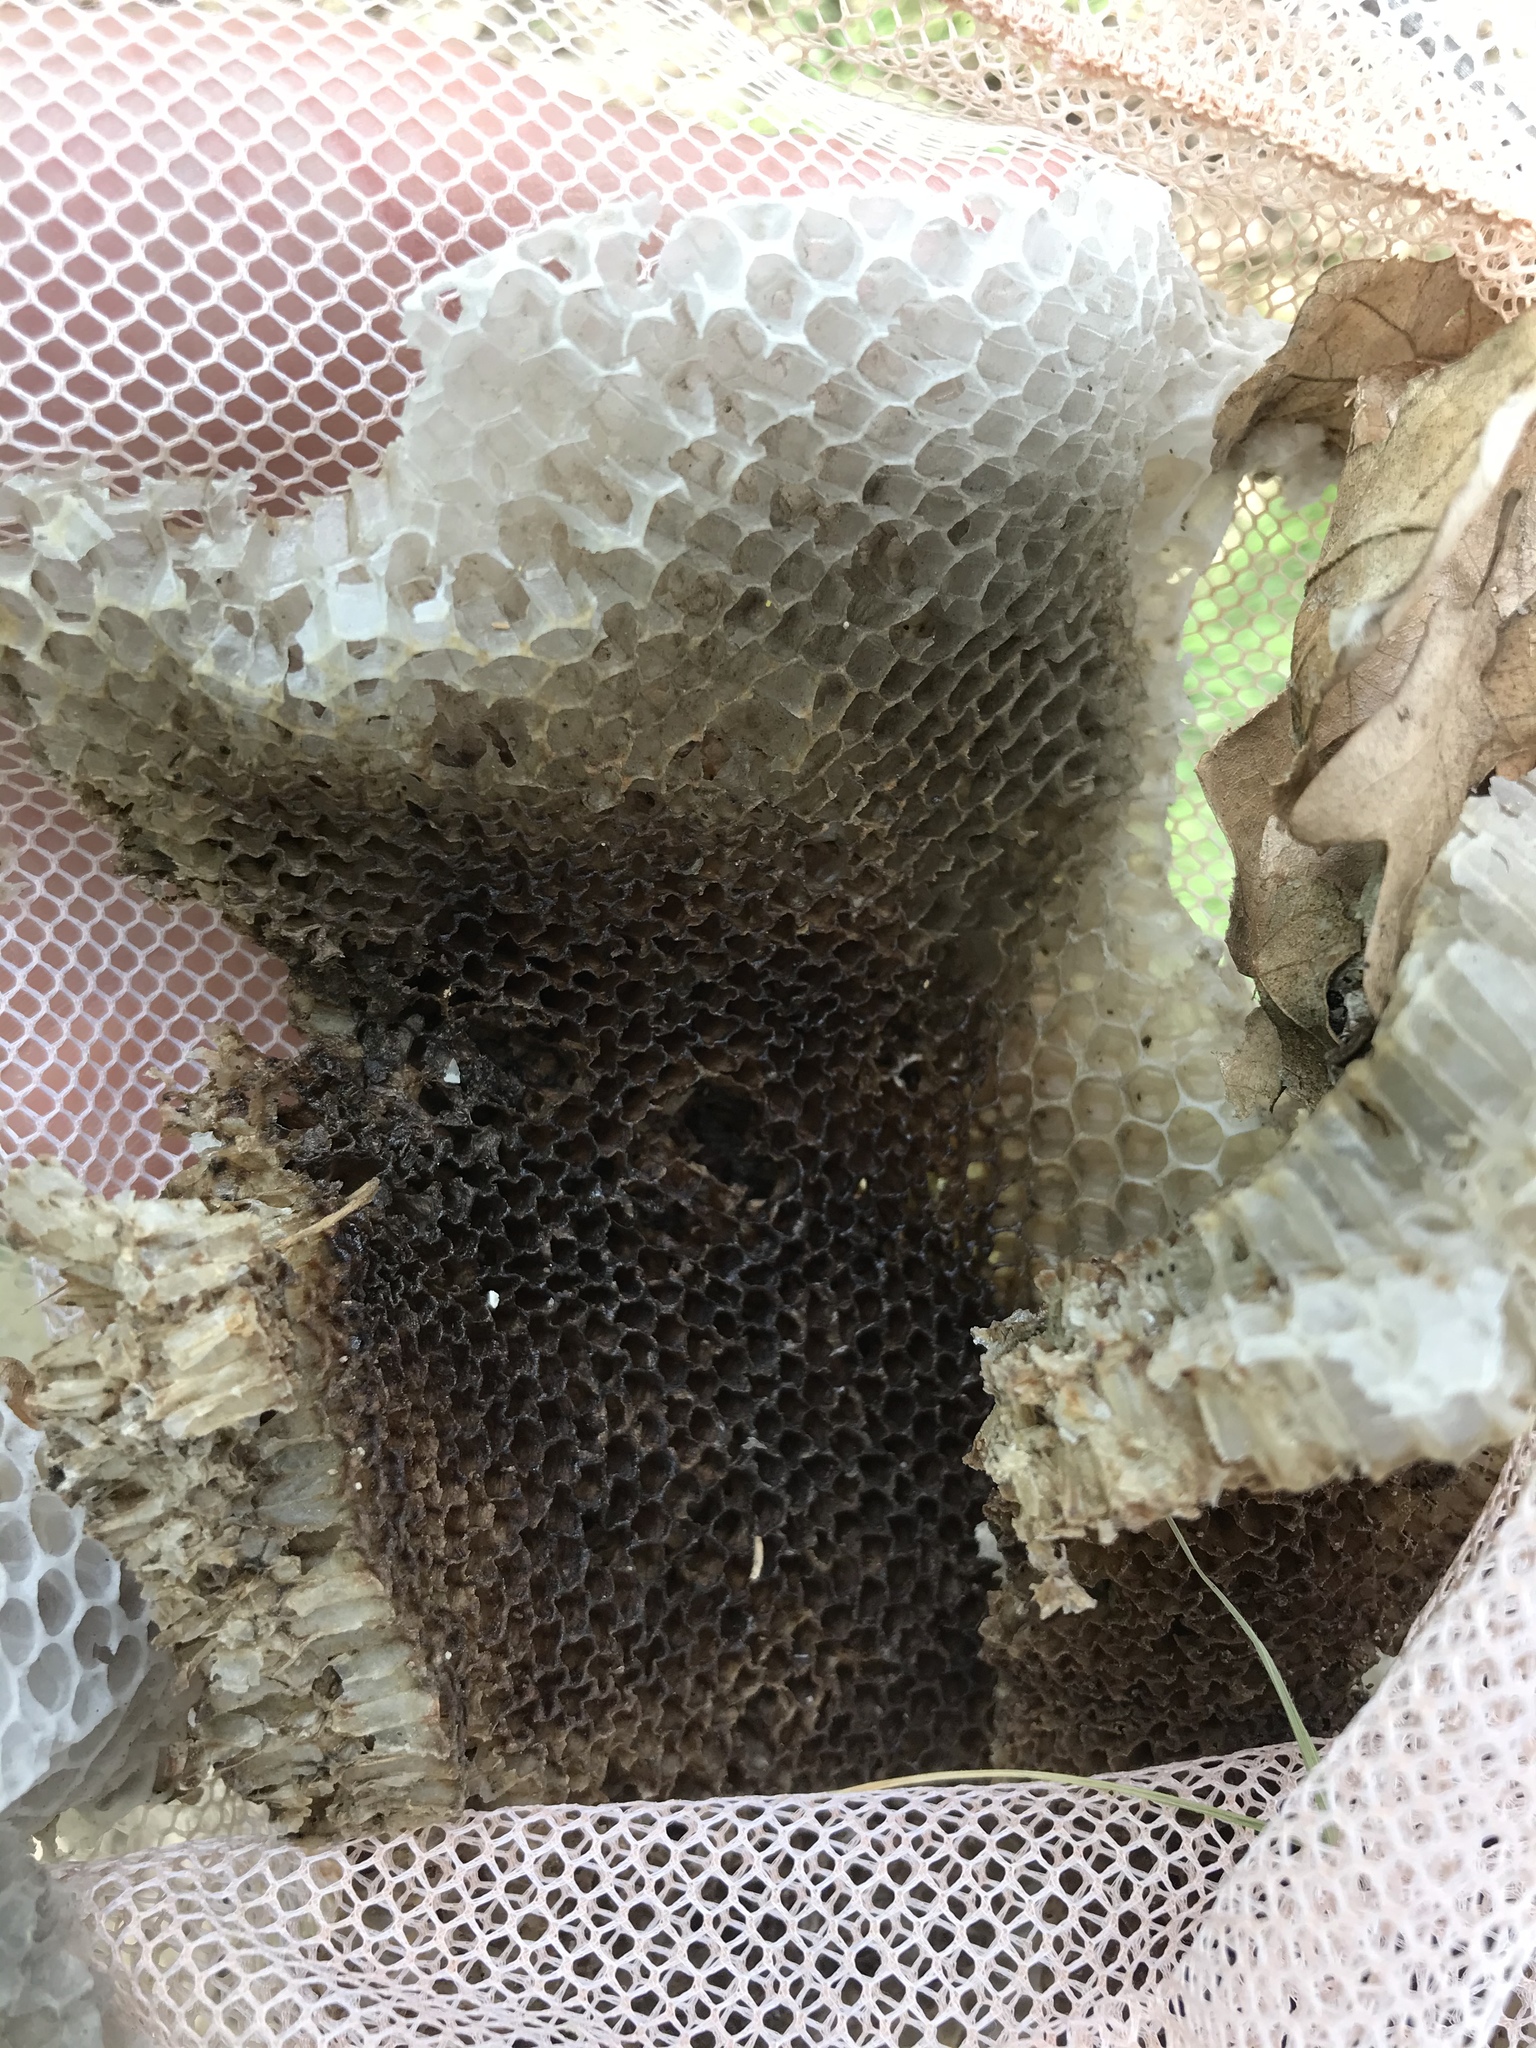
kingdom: Animalia
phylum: Arthropoda
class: Insecta
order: Hymenoptera
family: Apidae
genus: Apis
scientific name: Apis mellifera
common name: Honey bee
